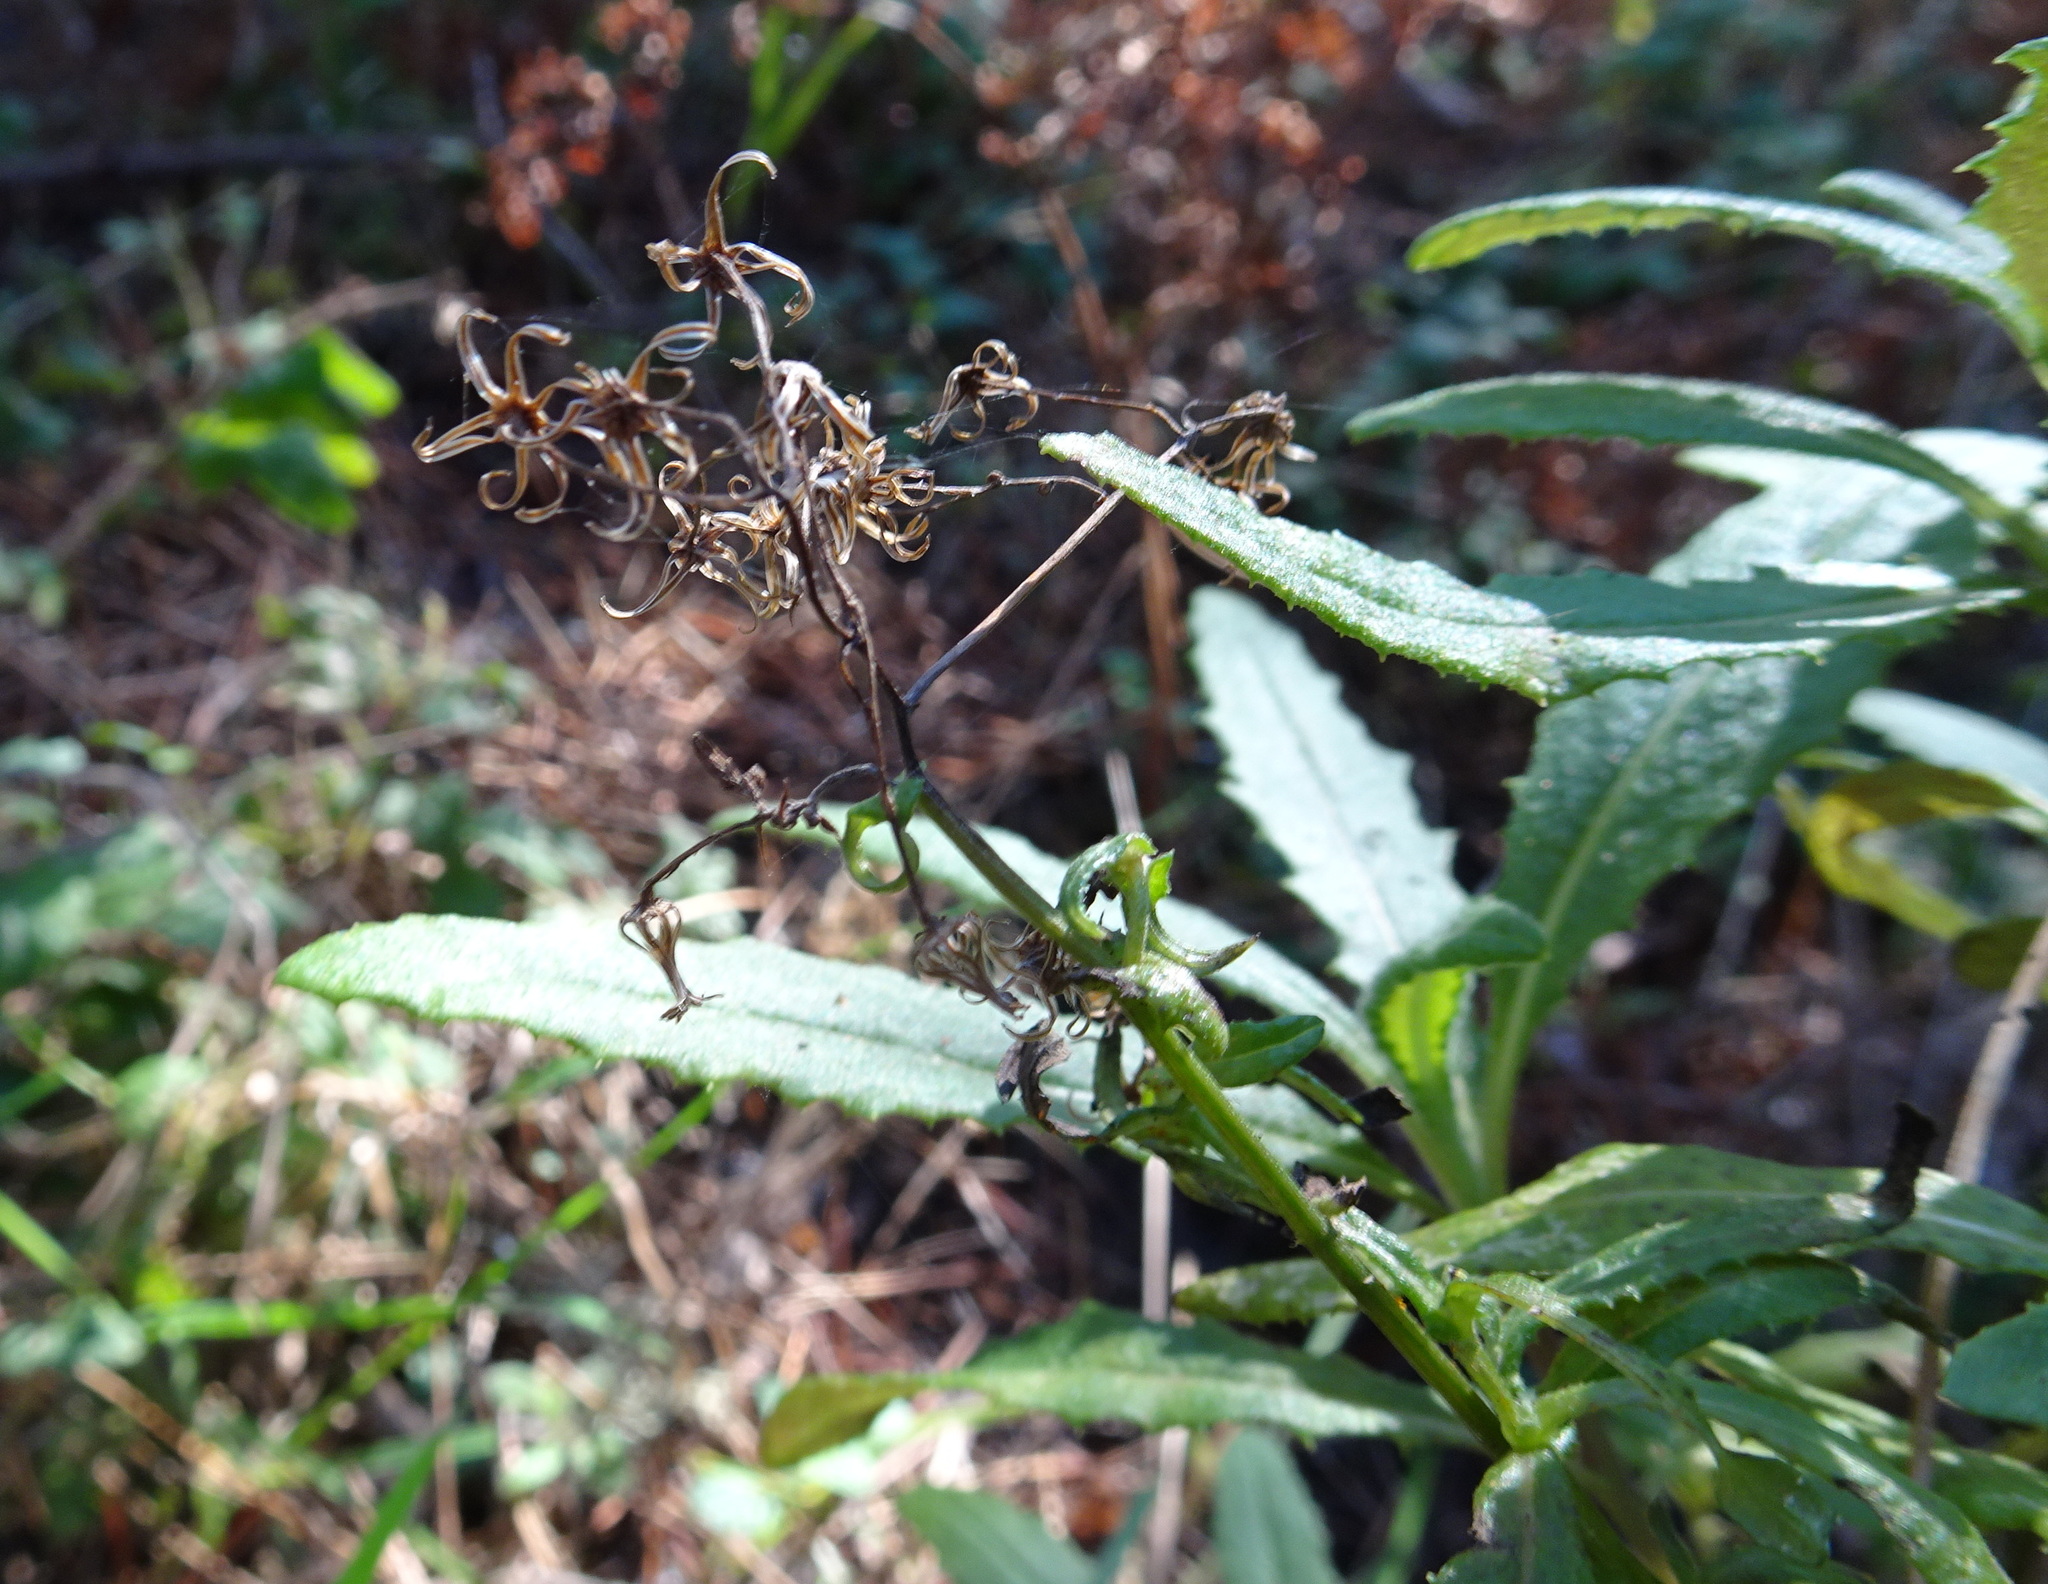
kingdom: Plantae
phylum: Tracheophyta
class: Magnoliopsida
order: Asterales
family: Asteraceae
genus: Senecio
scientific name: Senecio minimus
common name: Toothed fireweed
